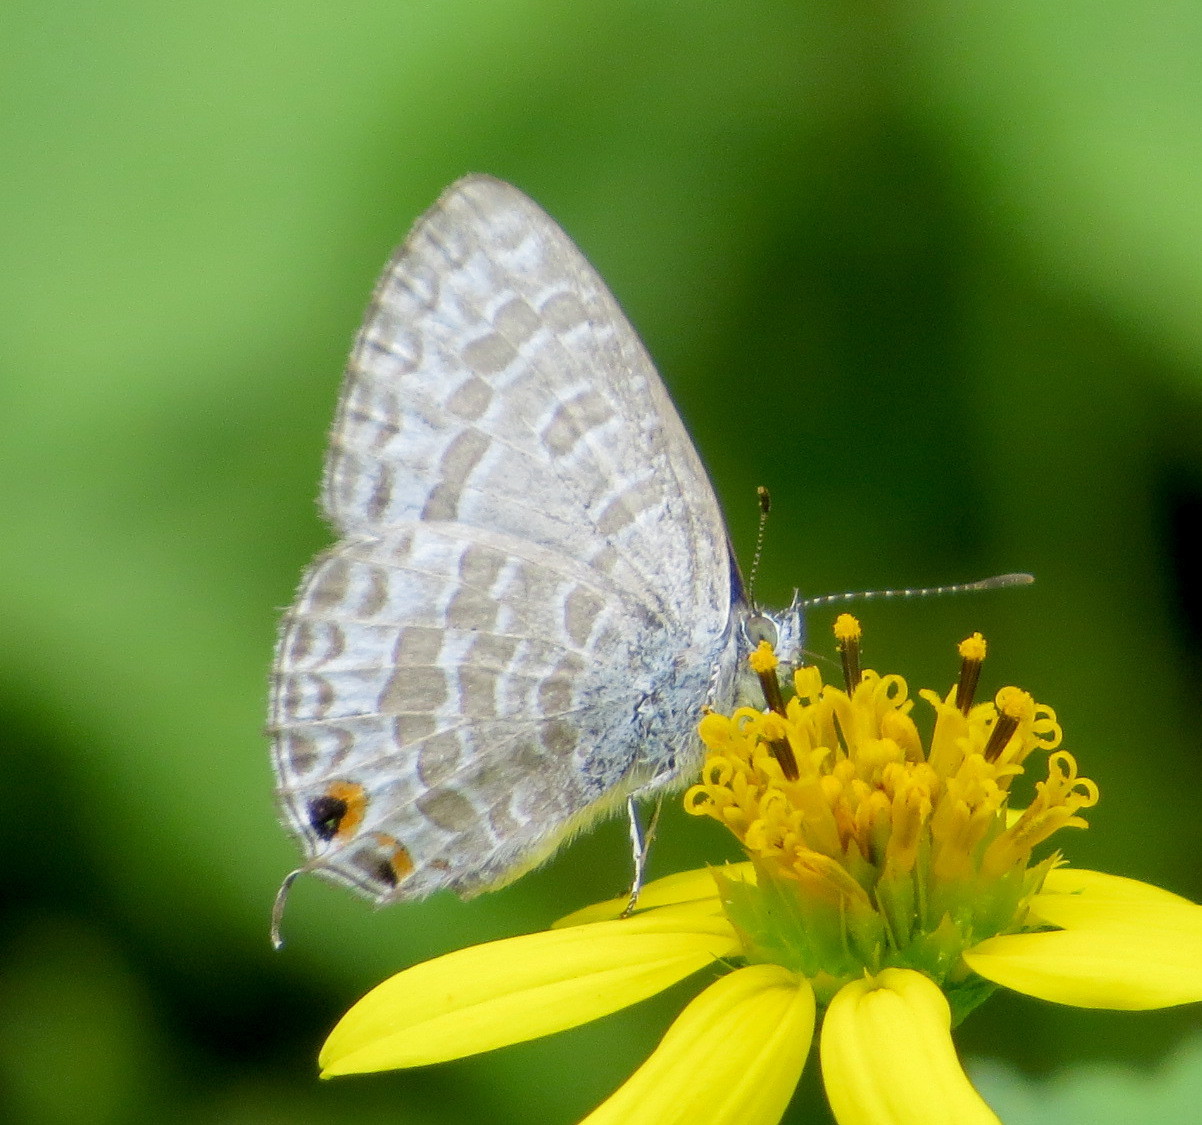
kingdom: Animalia
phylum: Arthropoda
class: Insecta
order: Lepidoptera
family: Lycaenidae
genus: Catopyrops
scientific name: Catopyrops ancyra
